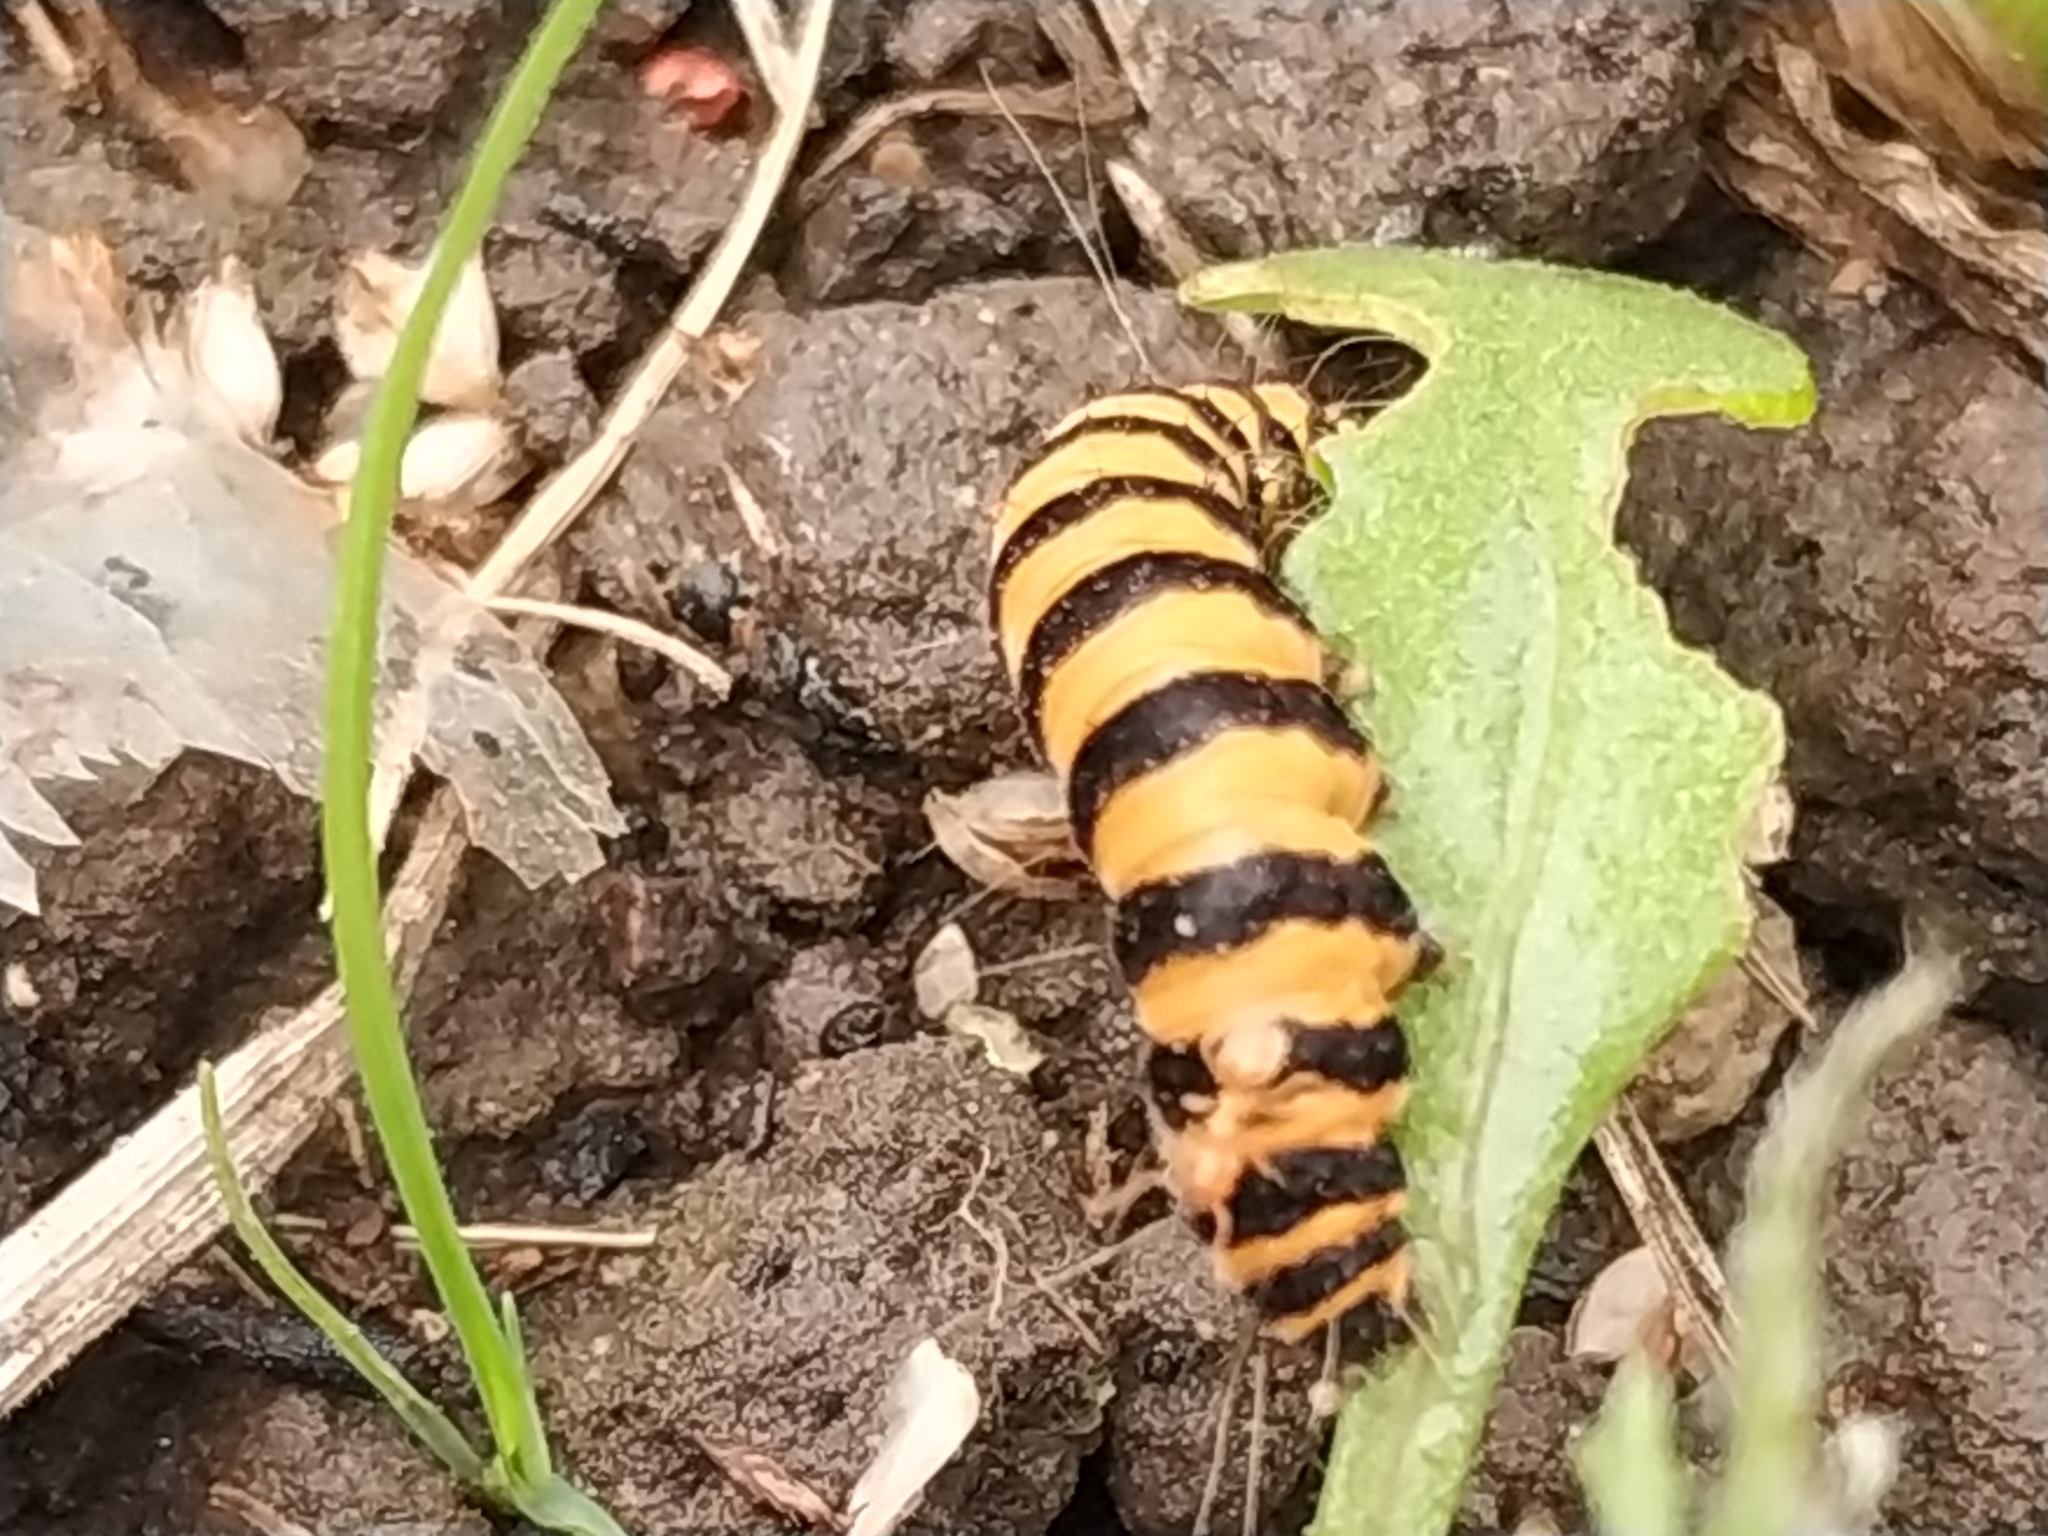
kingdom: Animalia
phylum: Arthropoda
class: Insecta
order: Lepidoptera
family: Erebidae
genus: Tyria
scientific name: Tyria jacobaeae
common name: Cinnabar
